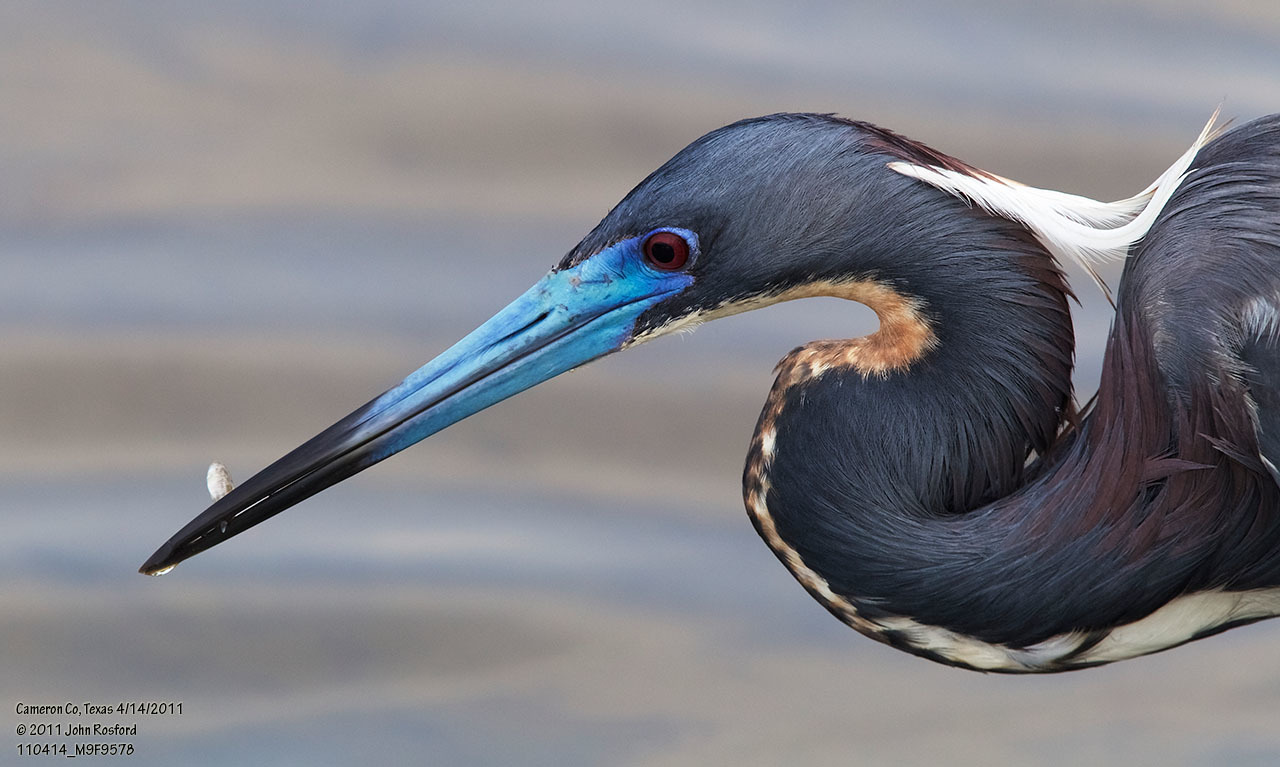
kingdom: Animalia
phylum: Chordata
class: Aves
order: Pelecaniformes
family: Ardeidae
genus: Egretta
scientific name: Egretta tricolor
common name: Tricolored heron
